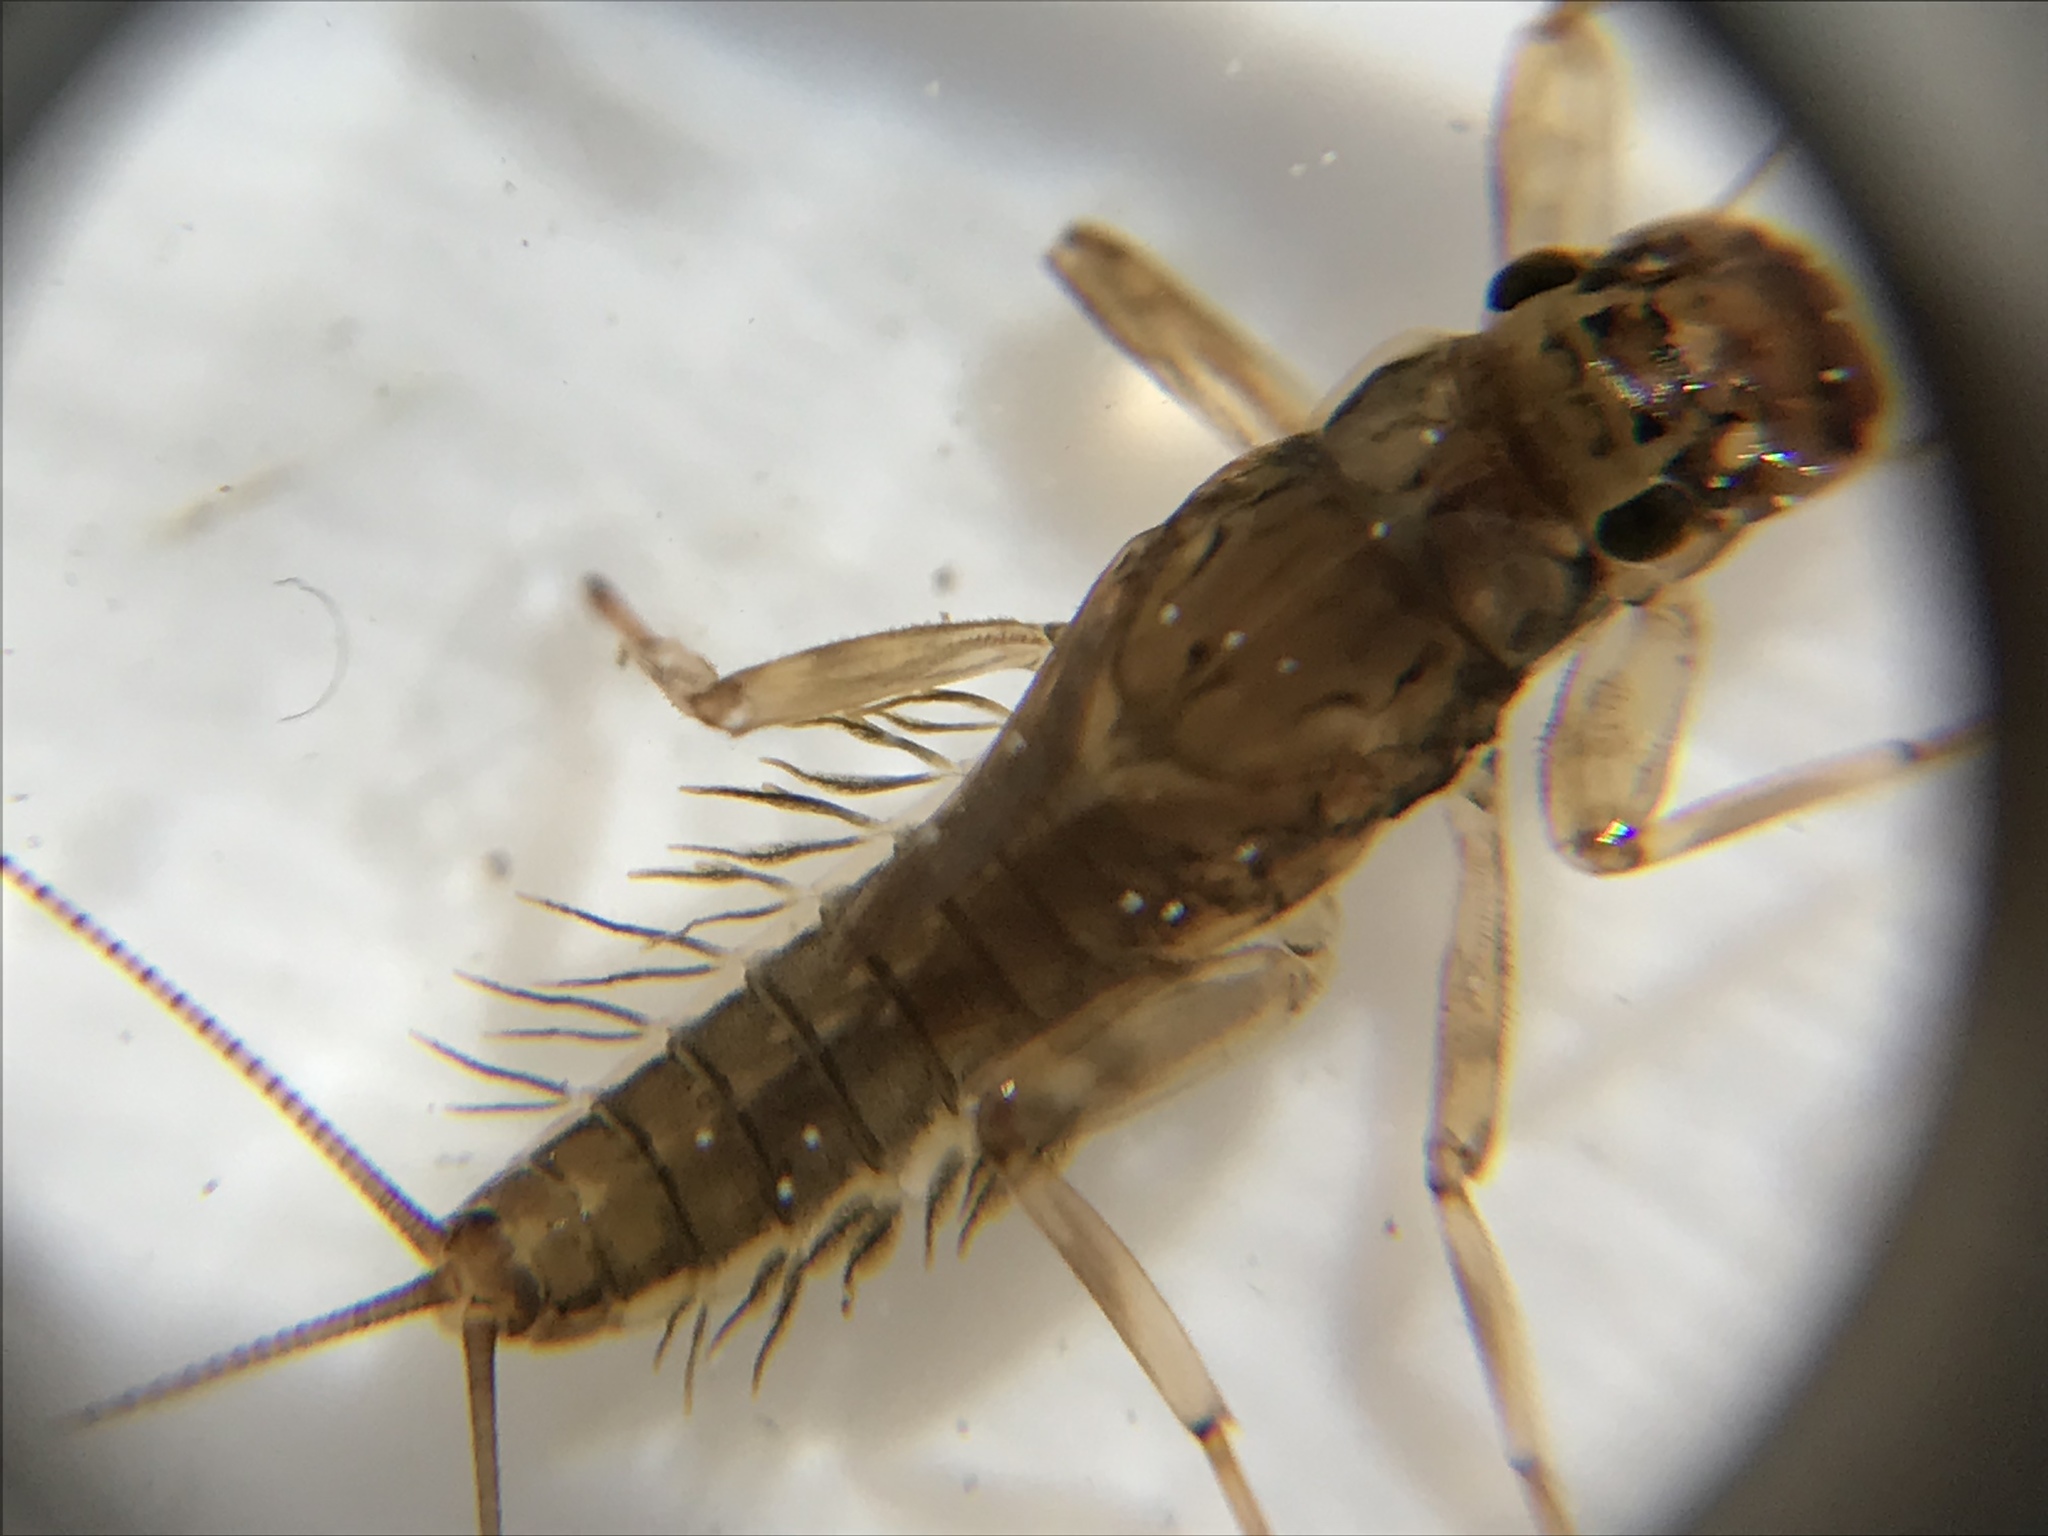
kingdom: Animalia
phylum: Arthropoda
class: Insecta
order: Ephemeroptera
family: Leptophlebiidae
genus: Atalophlebioides
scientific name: Atalophlebioides cromwelli
